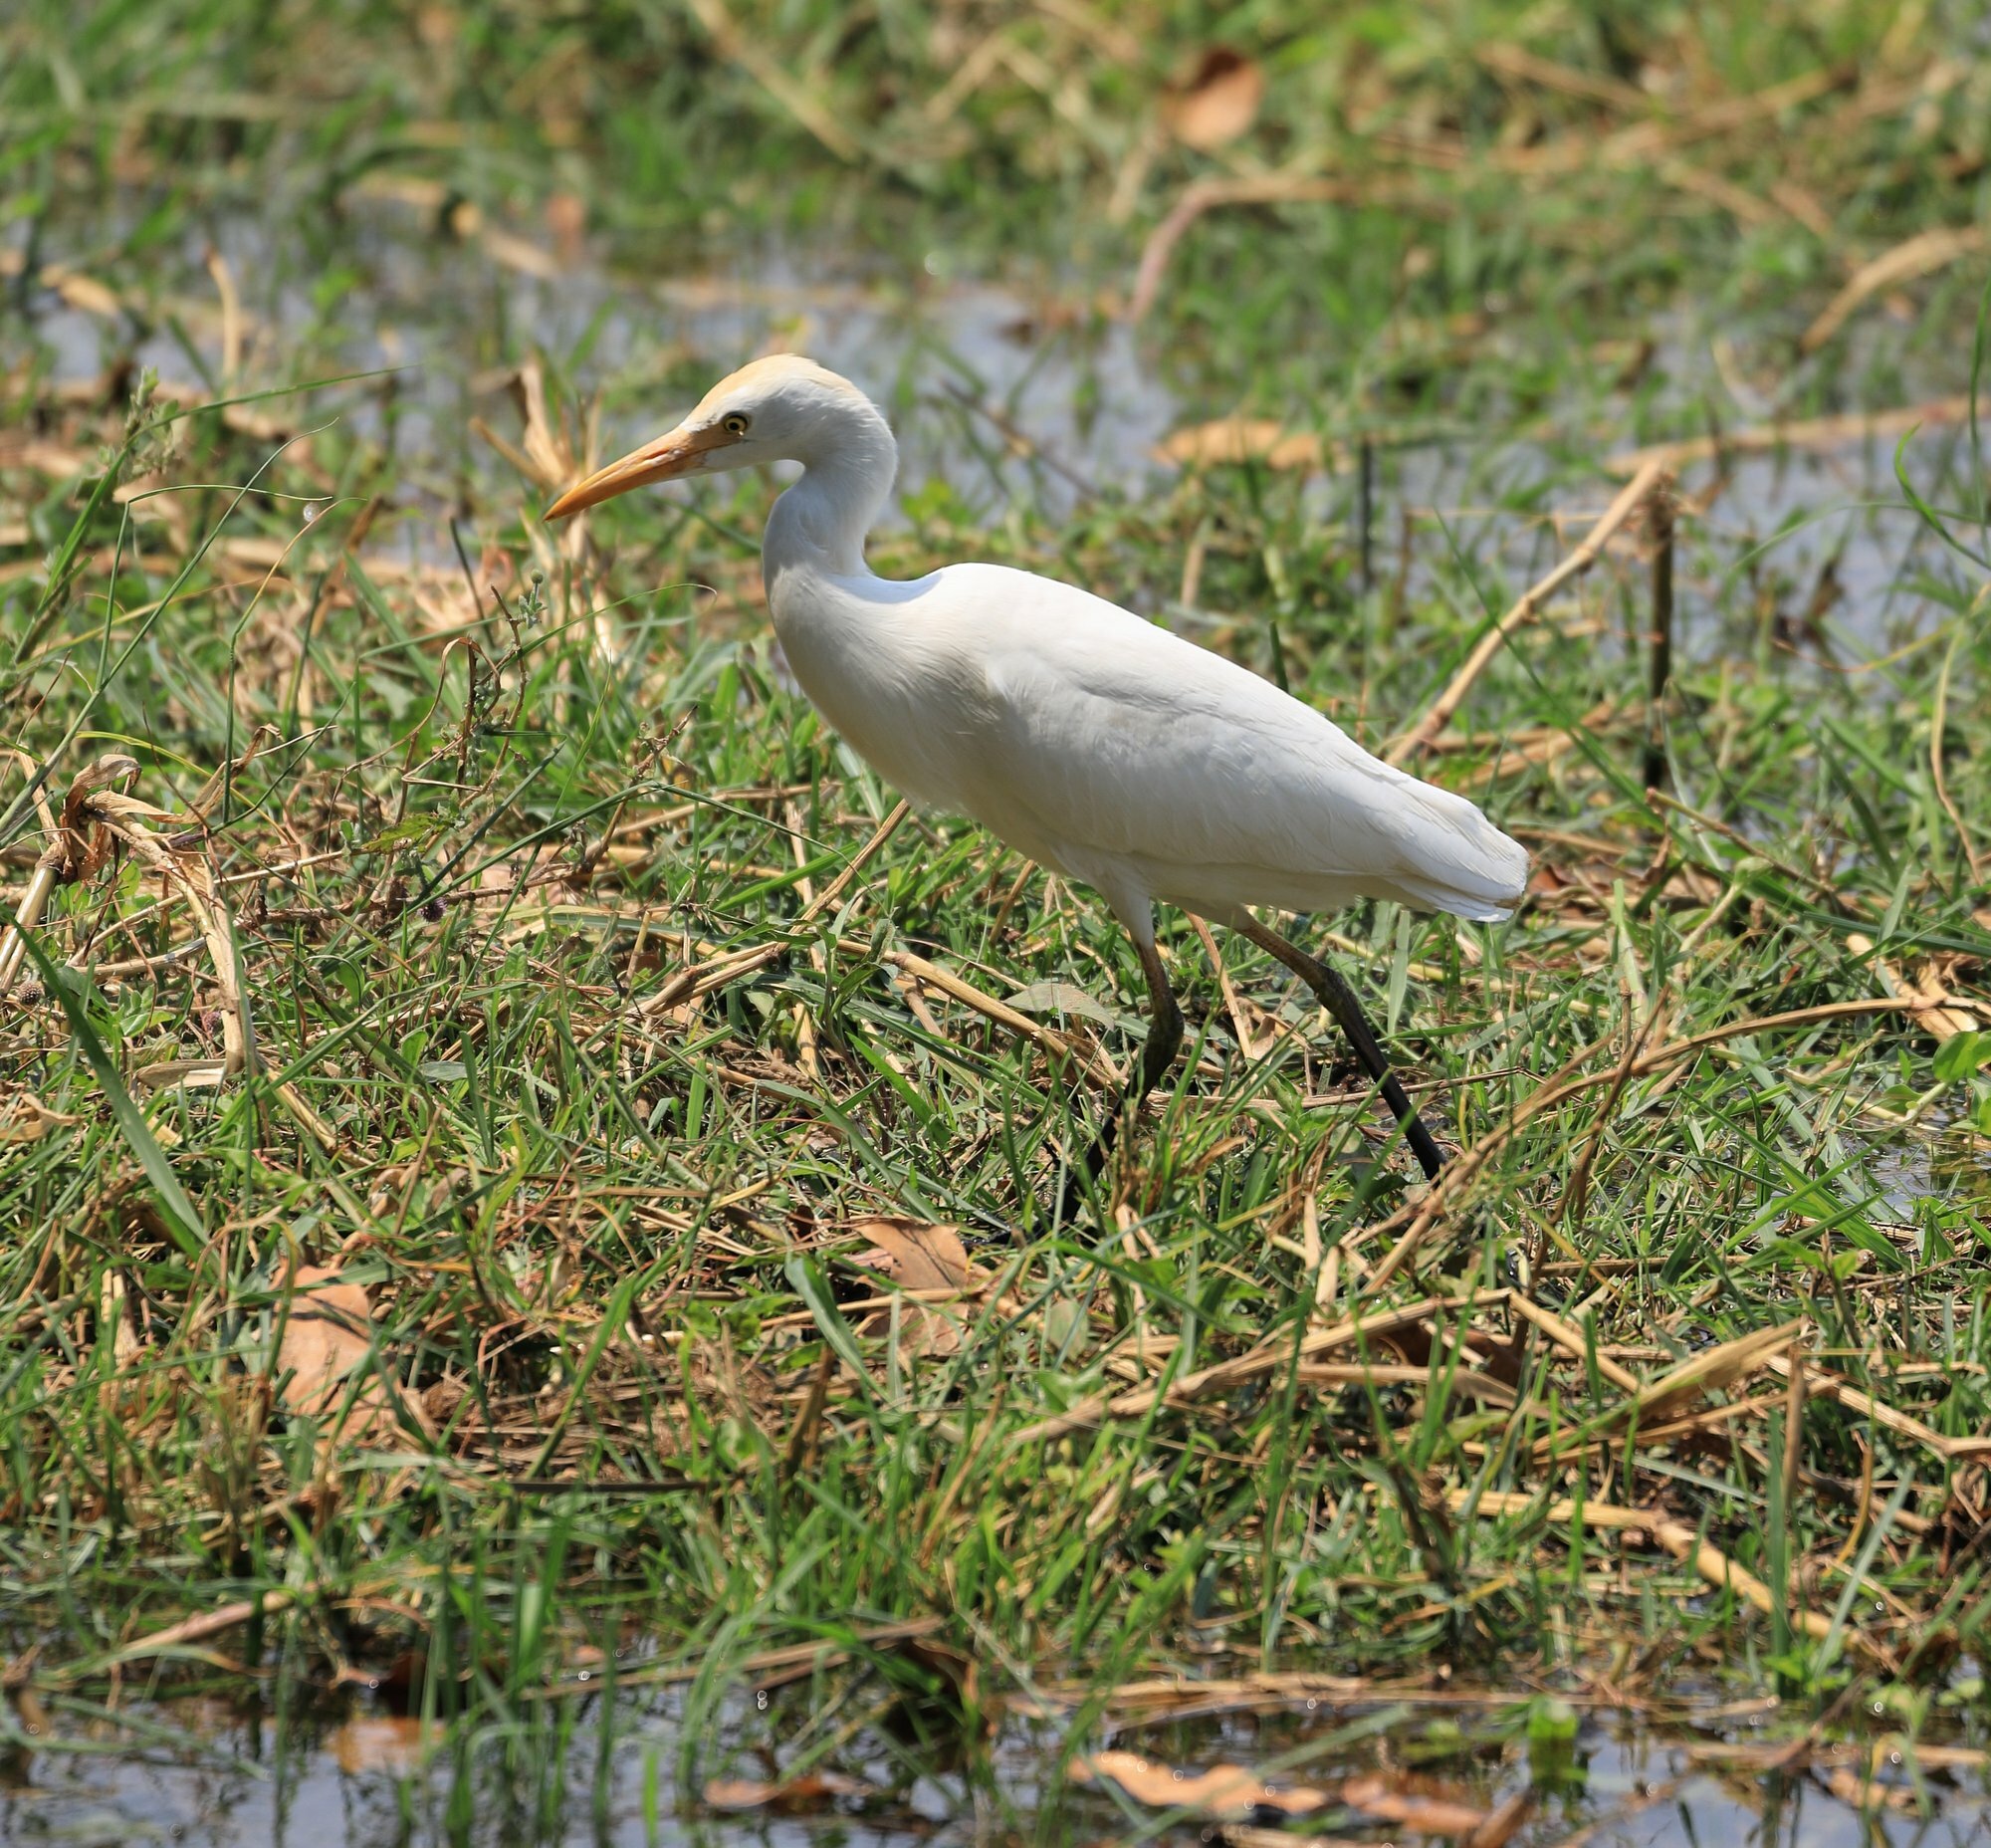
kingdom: Animalia
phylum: Chordata
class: Aves
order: Pelecaniformes
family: Ardeidae
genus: Bubulcus
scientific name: Bubulcus ibis
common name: Cattle egret
